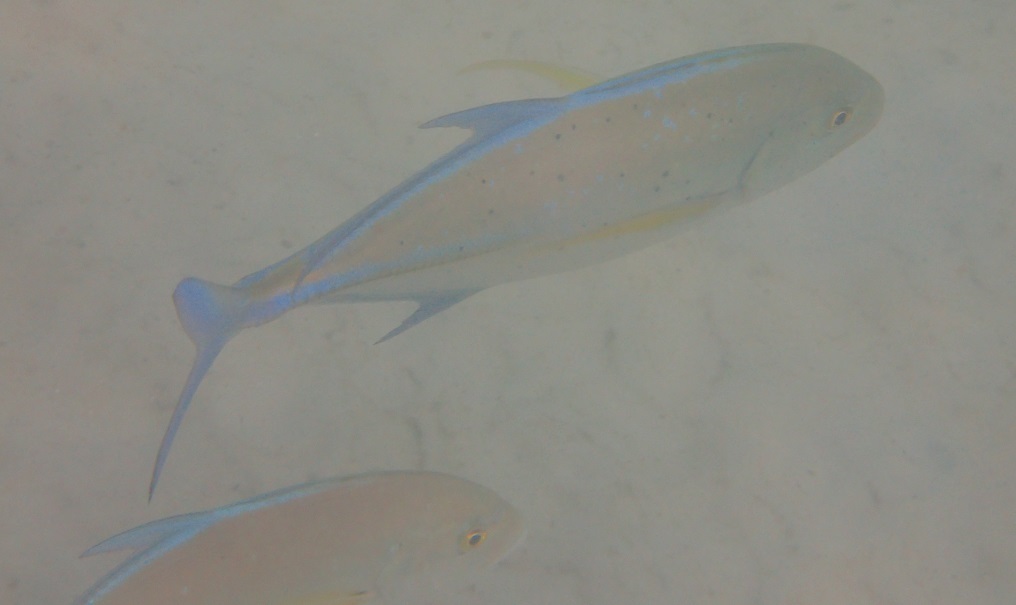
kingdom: Animalia
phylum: Chordata
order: Perciformes
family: Carangidae
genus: Caranx
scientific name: Caranx melampygus
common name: Bluefin trevally
